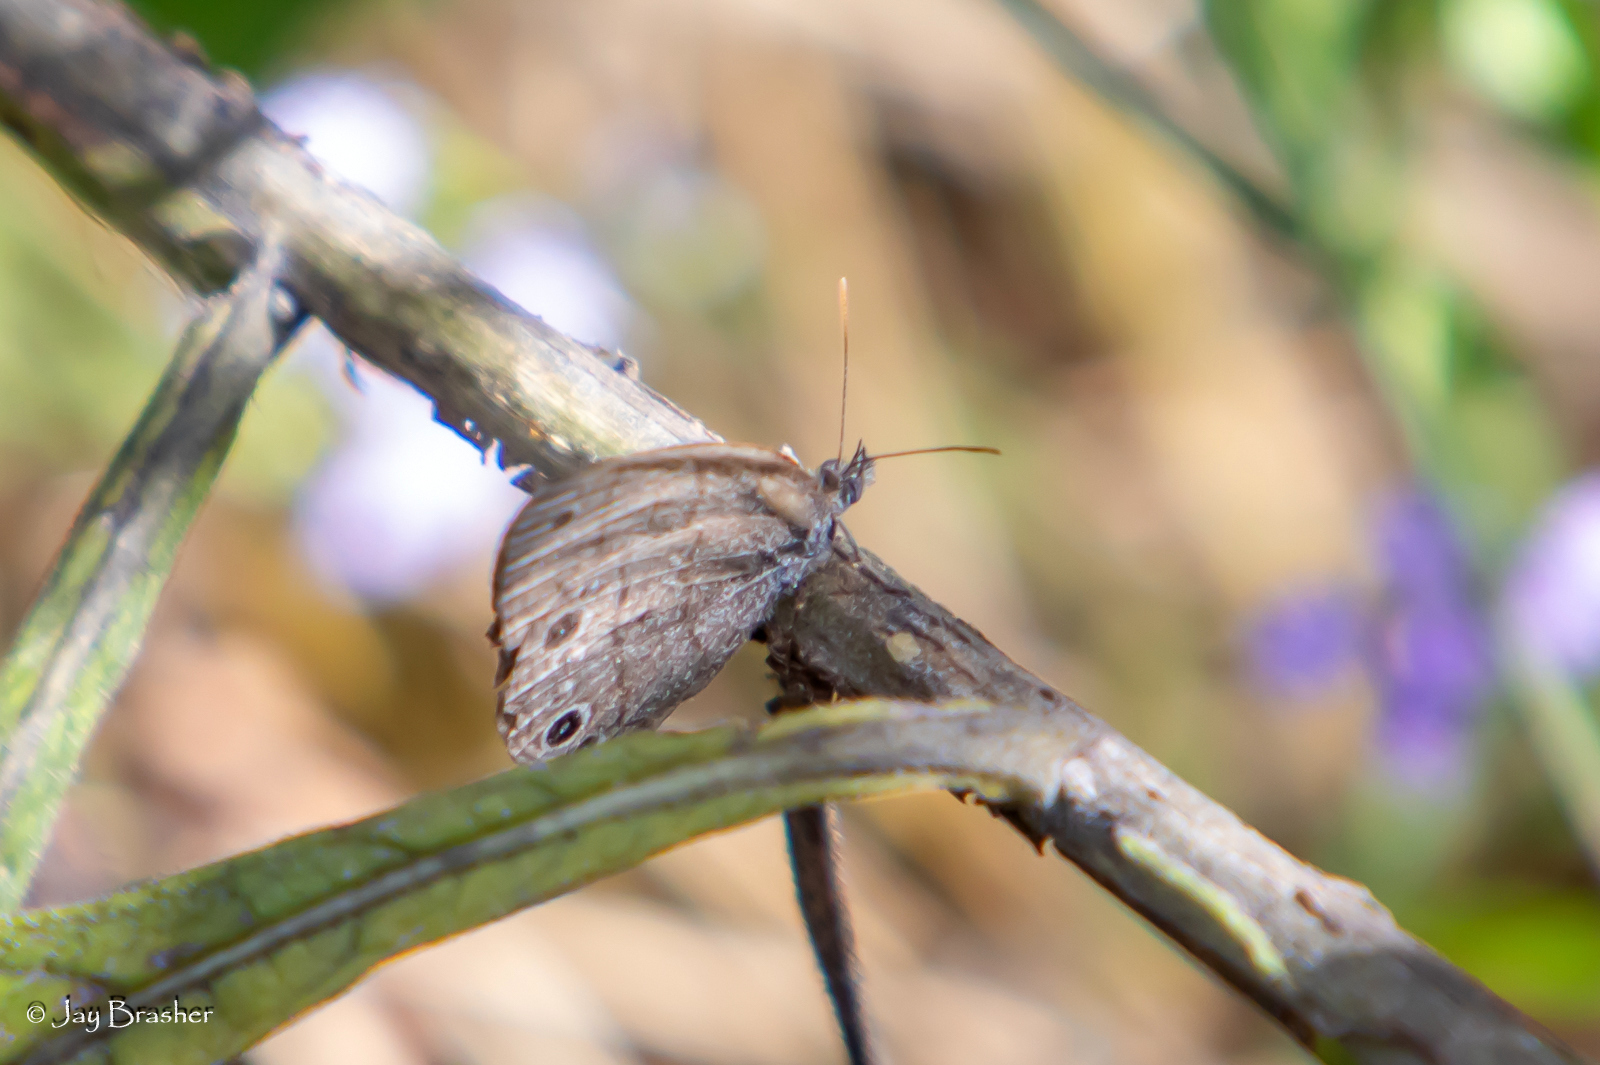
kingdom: Animalia
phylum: Arthropoda
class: Insecta
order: Lepidoptera
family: Nymphalidae
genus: Hermeuptychia
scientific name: Hermeuptychia hermes
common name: Hermes satyr
